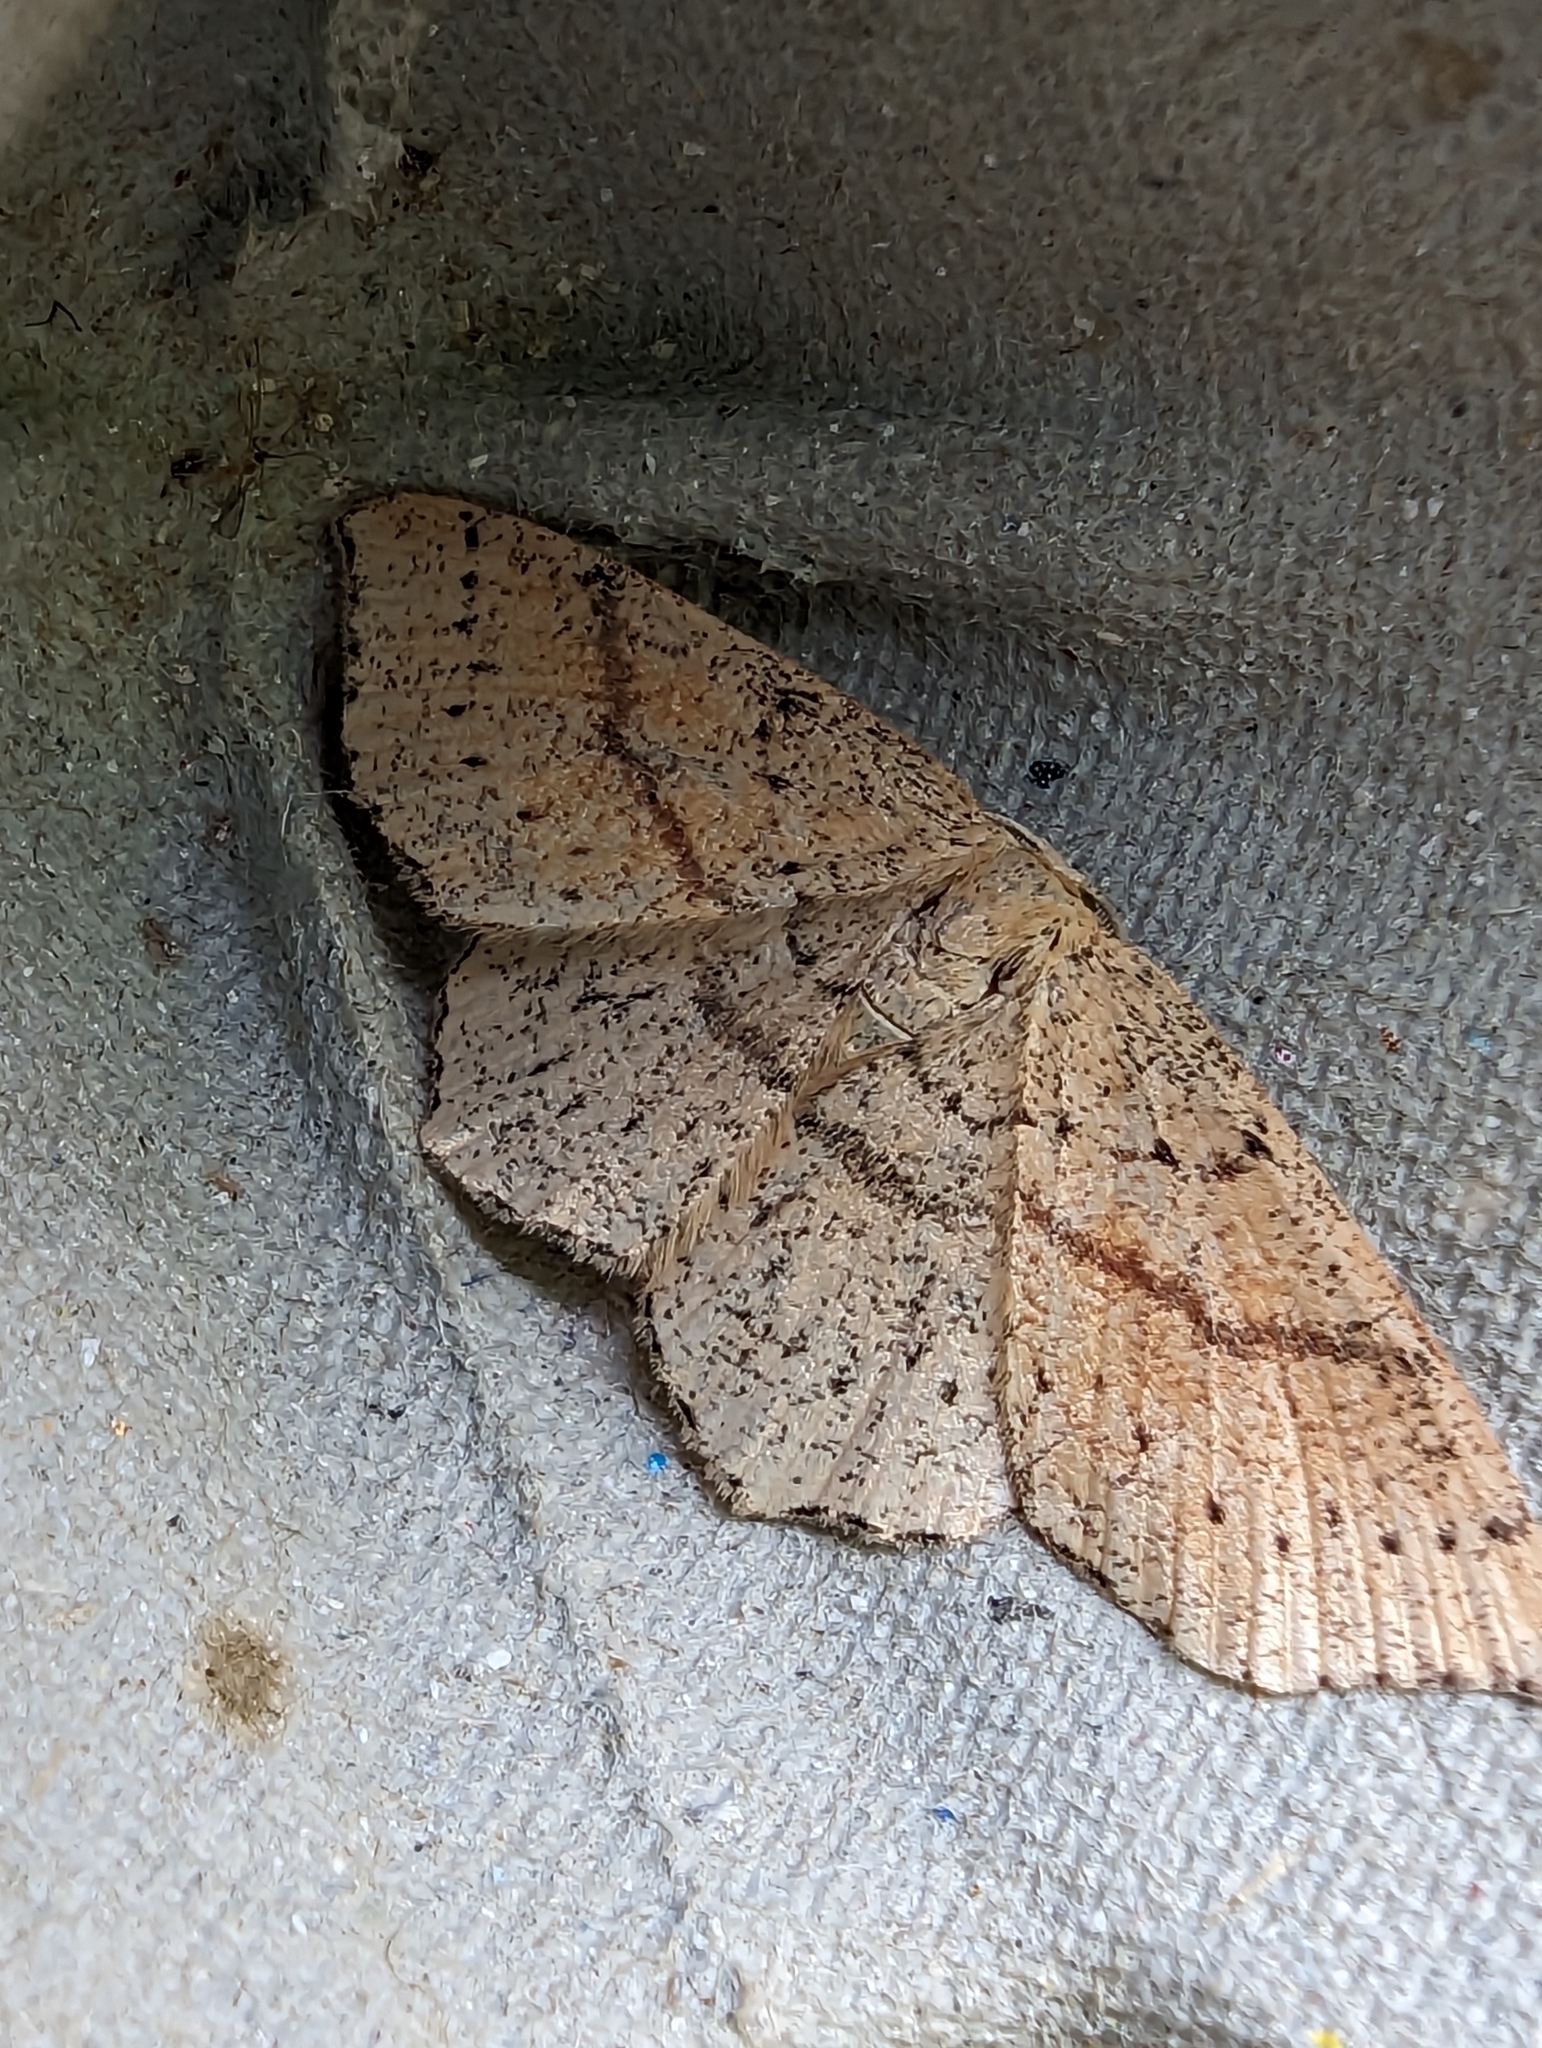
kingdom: Animalia
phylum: Arthropoda
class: Insecta
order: Lepidoptera
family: Geometridae
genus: Cyclophora
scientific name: Cyclophora punctaria
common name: Maiden's blush
